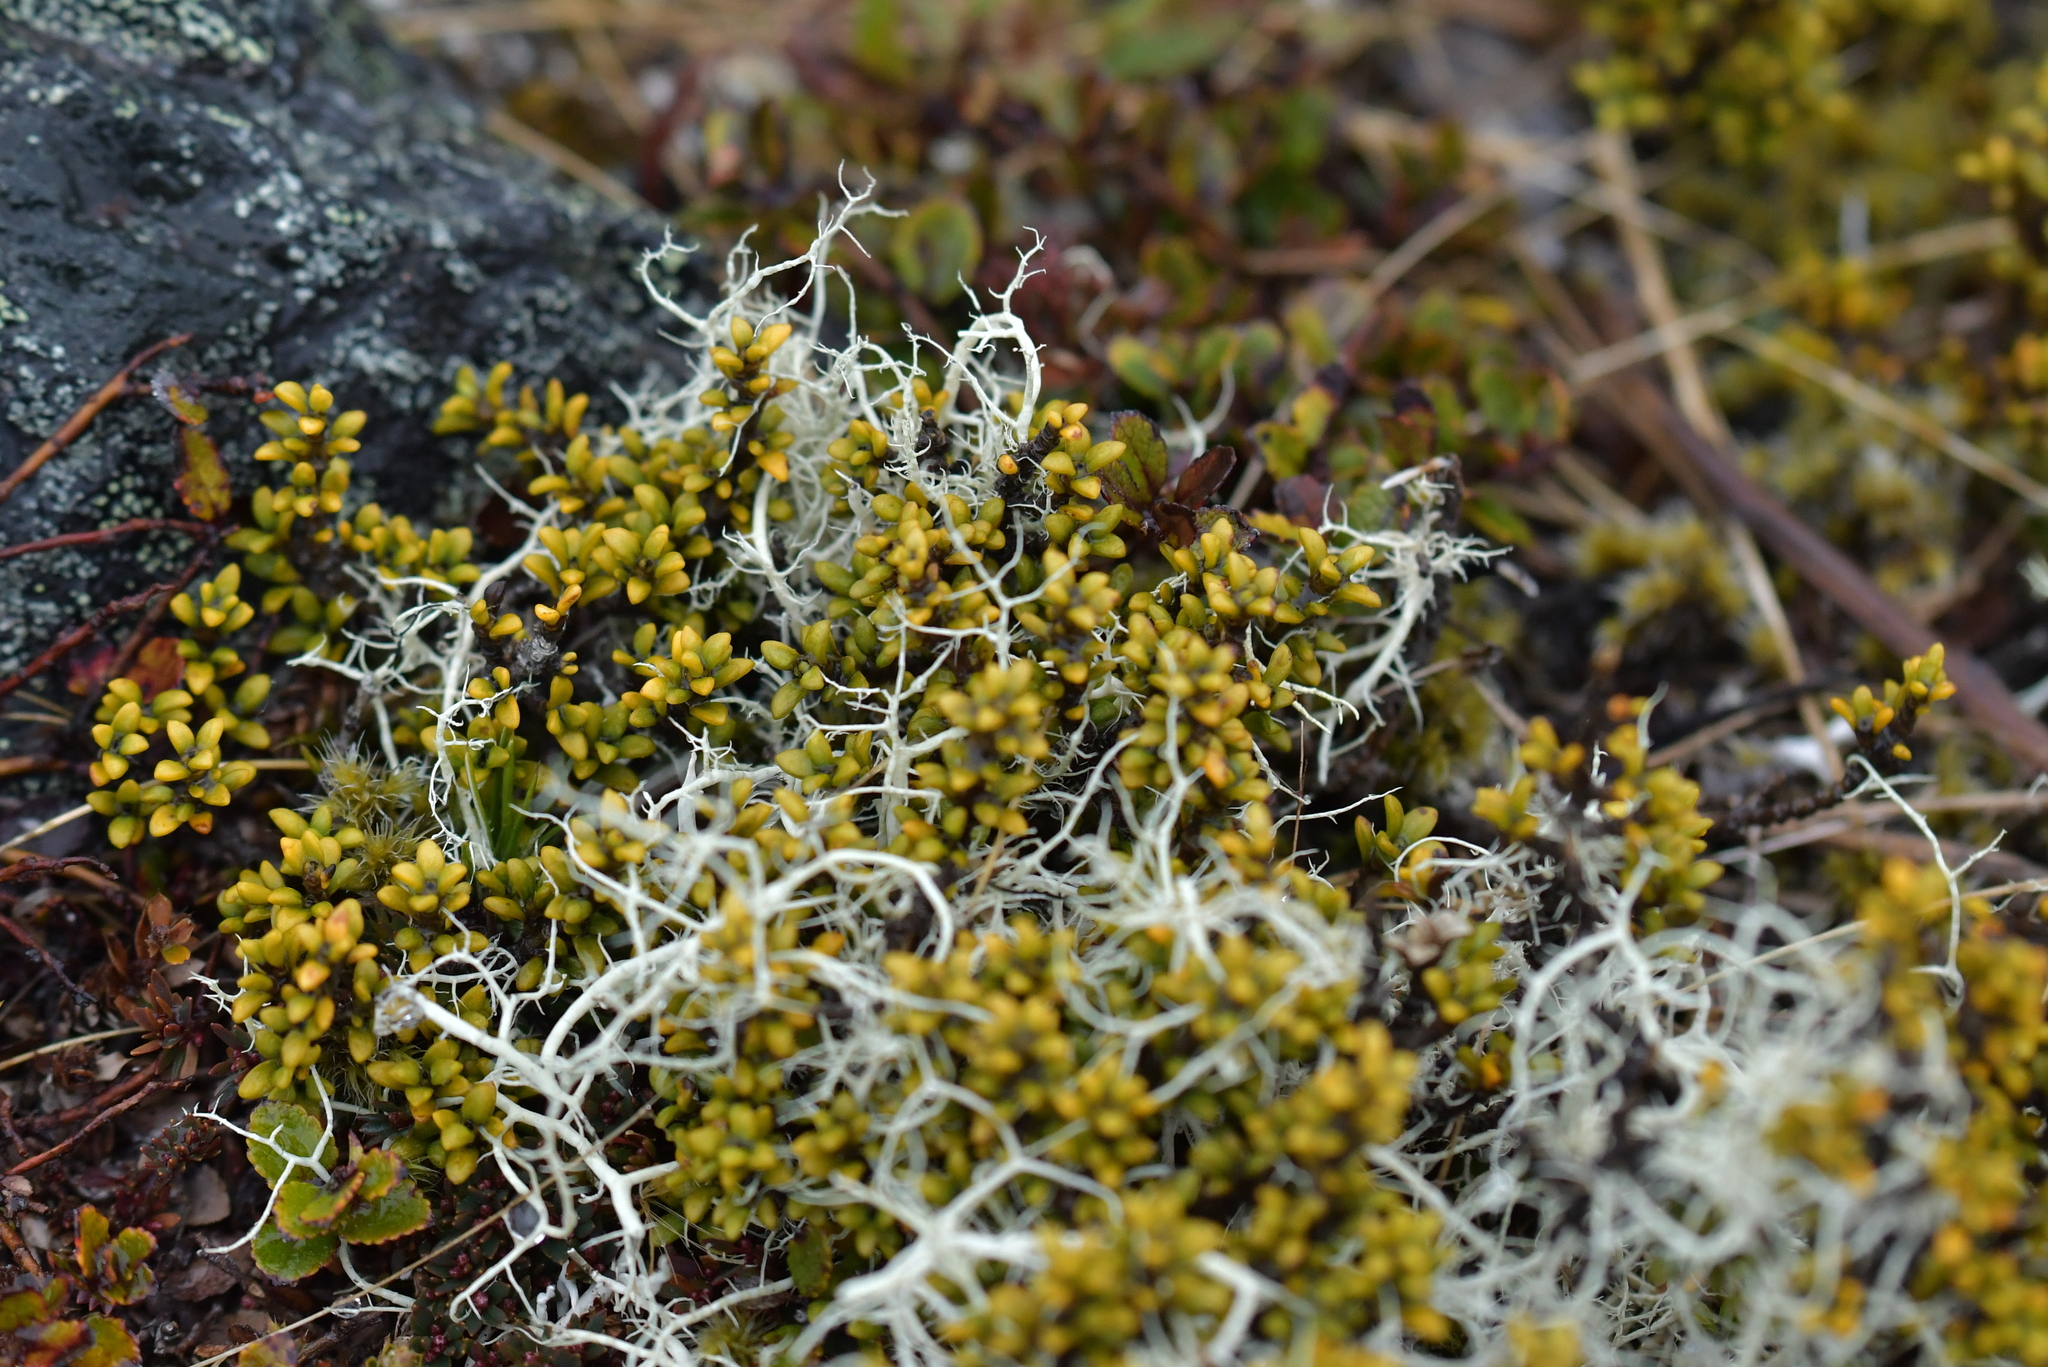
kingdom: Plantae
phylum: Tracheophyta
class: Magnoliopsida
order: Gentianales
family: Rubiaceae
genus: Coprosma
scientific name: Coprosma fowerakeri
